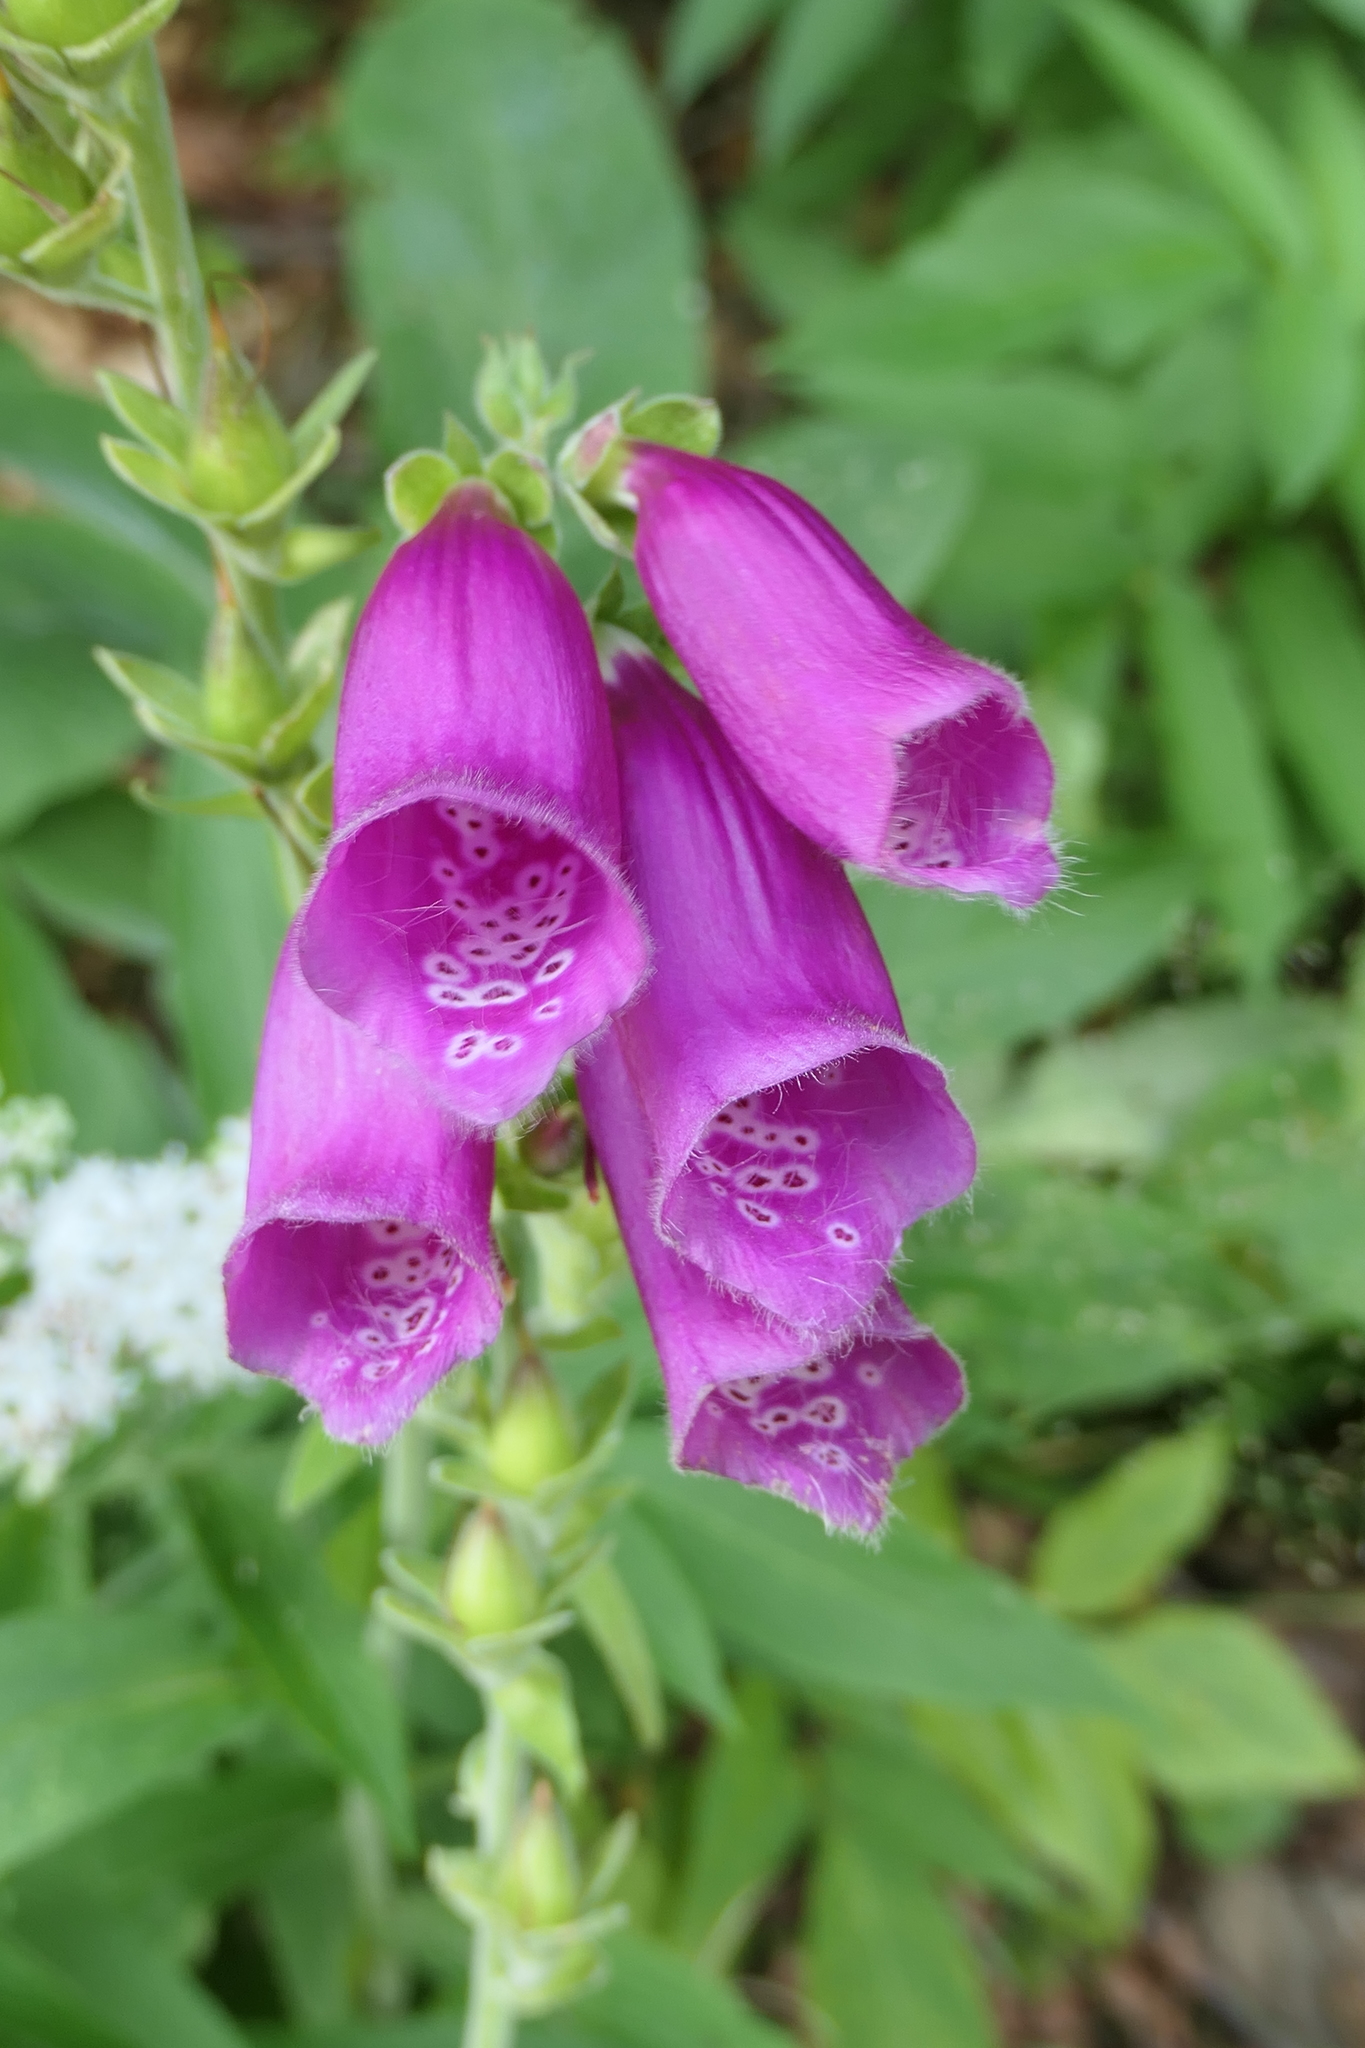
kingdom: Plantae
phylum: Tracheophyta
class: Magnoliopsida
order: Lamiales
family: Plantaginaceae
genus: Digitalis
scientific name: Digitalis purpurea
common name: Foxglove
